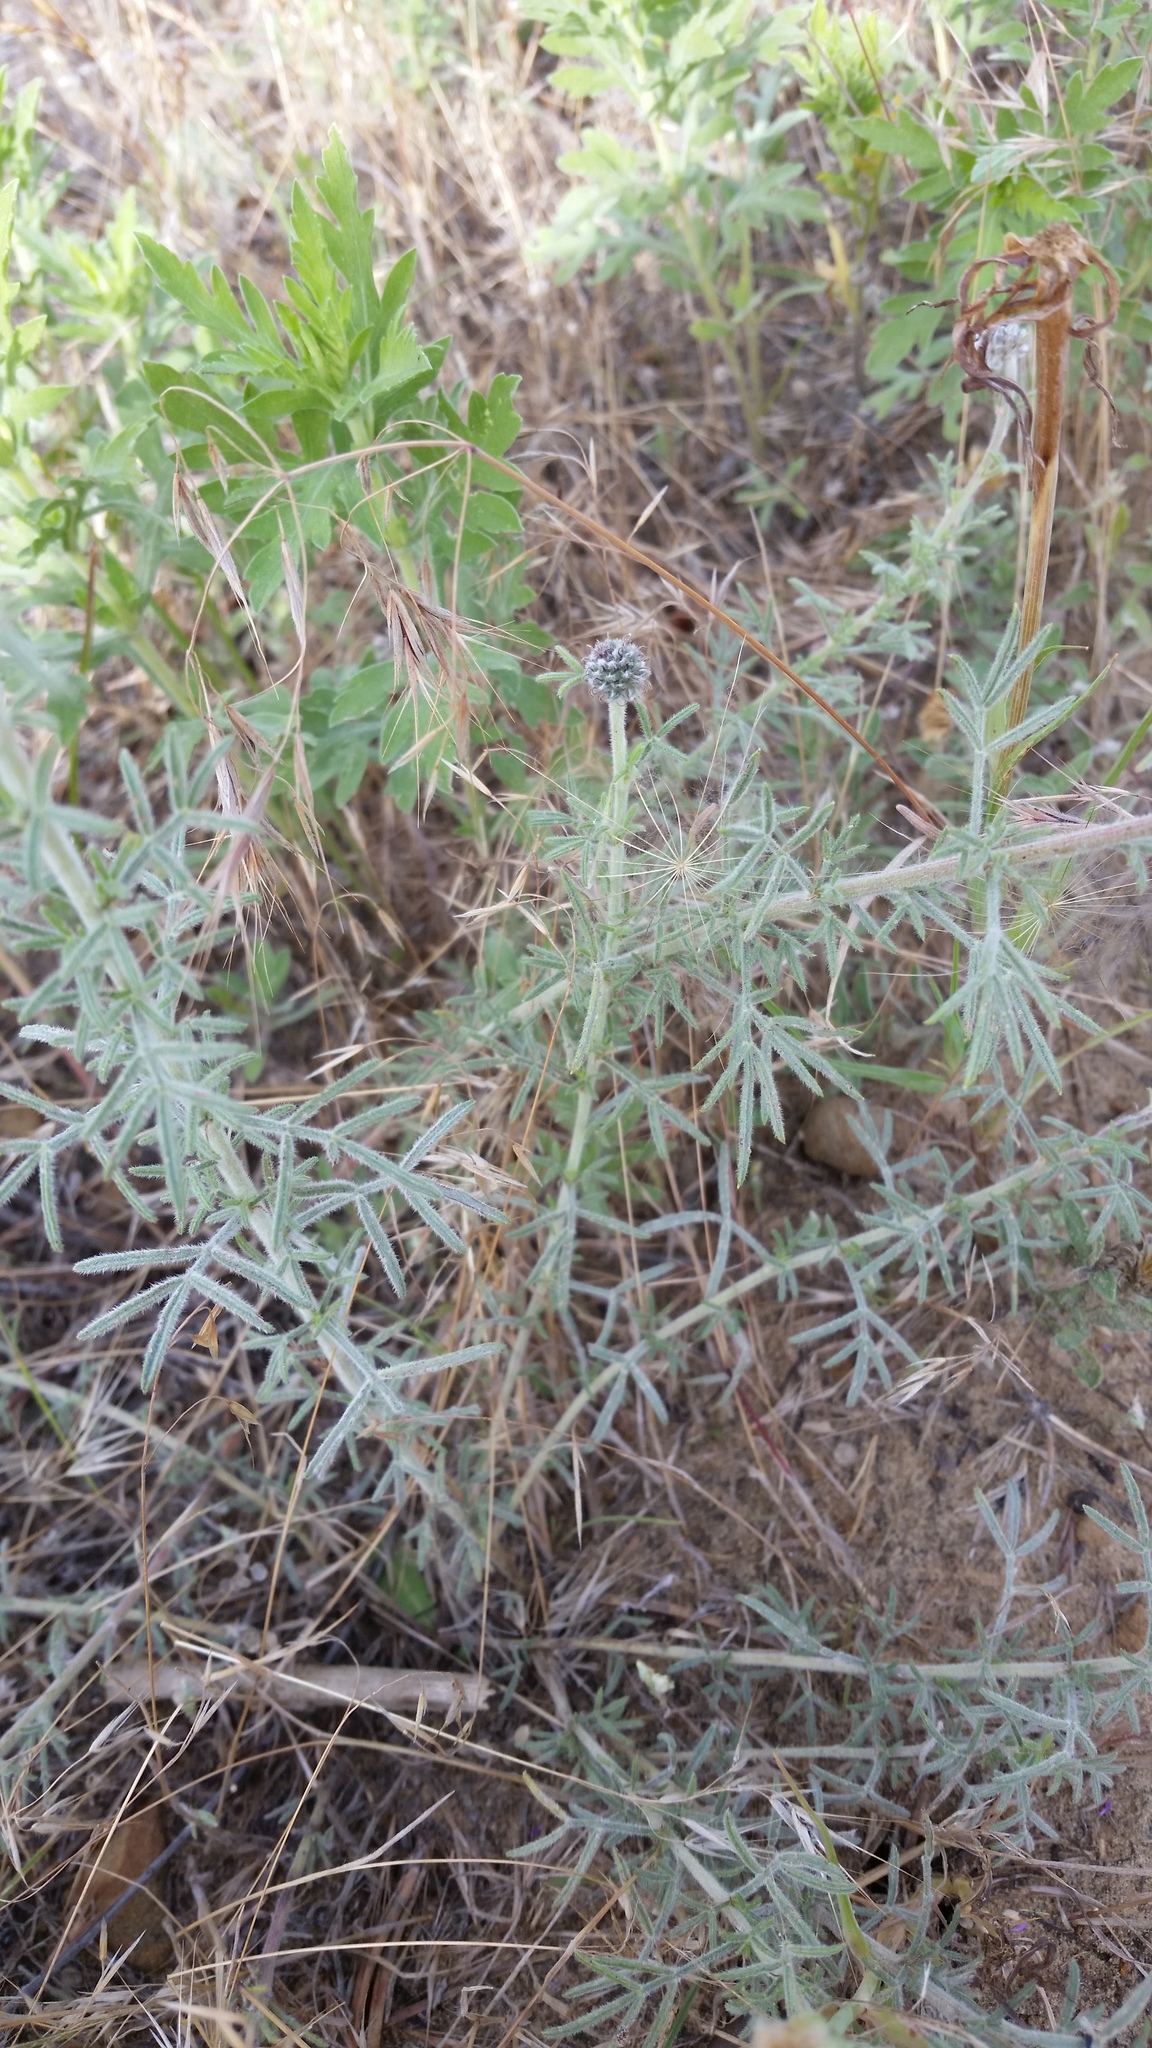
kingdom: Plantae
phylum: Tracheophyta
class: Magnoliopsida
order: Fabales
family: Fabaceae
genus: Dalea
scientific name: Dalea purpurea
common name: Purple prairie-clover
